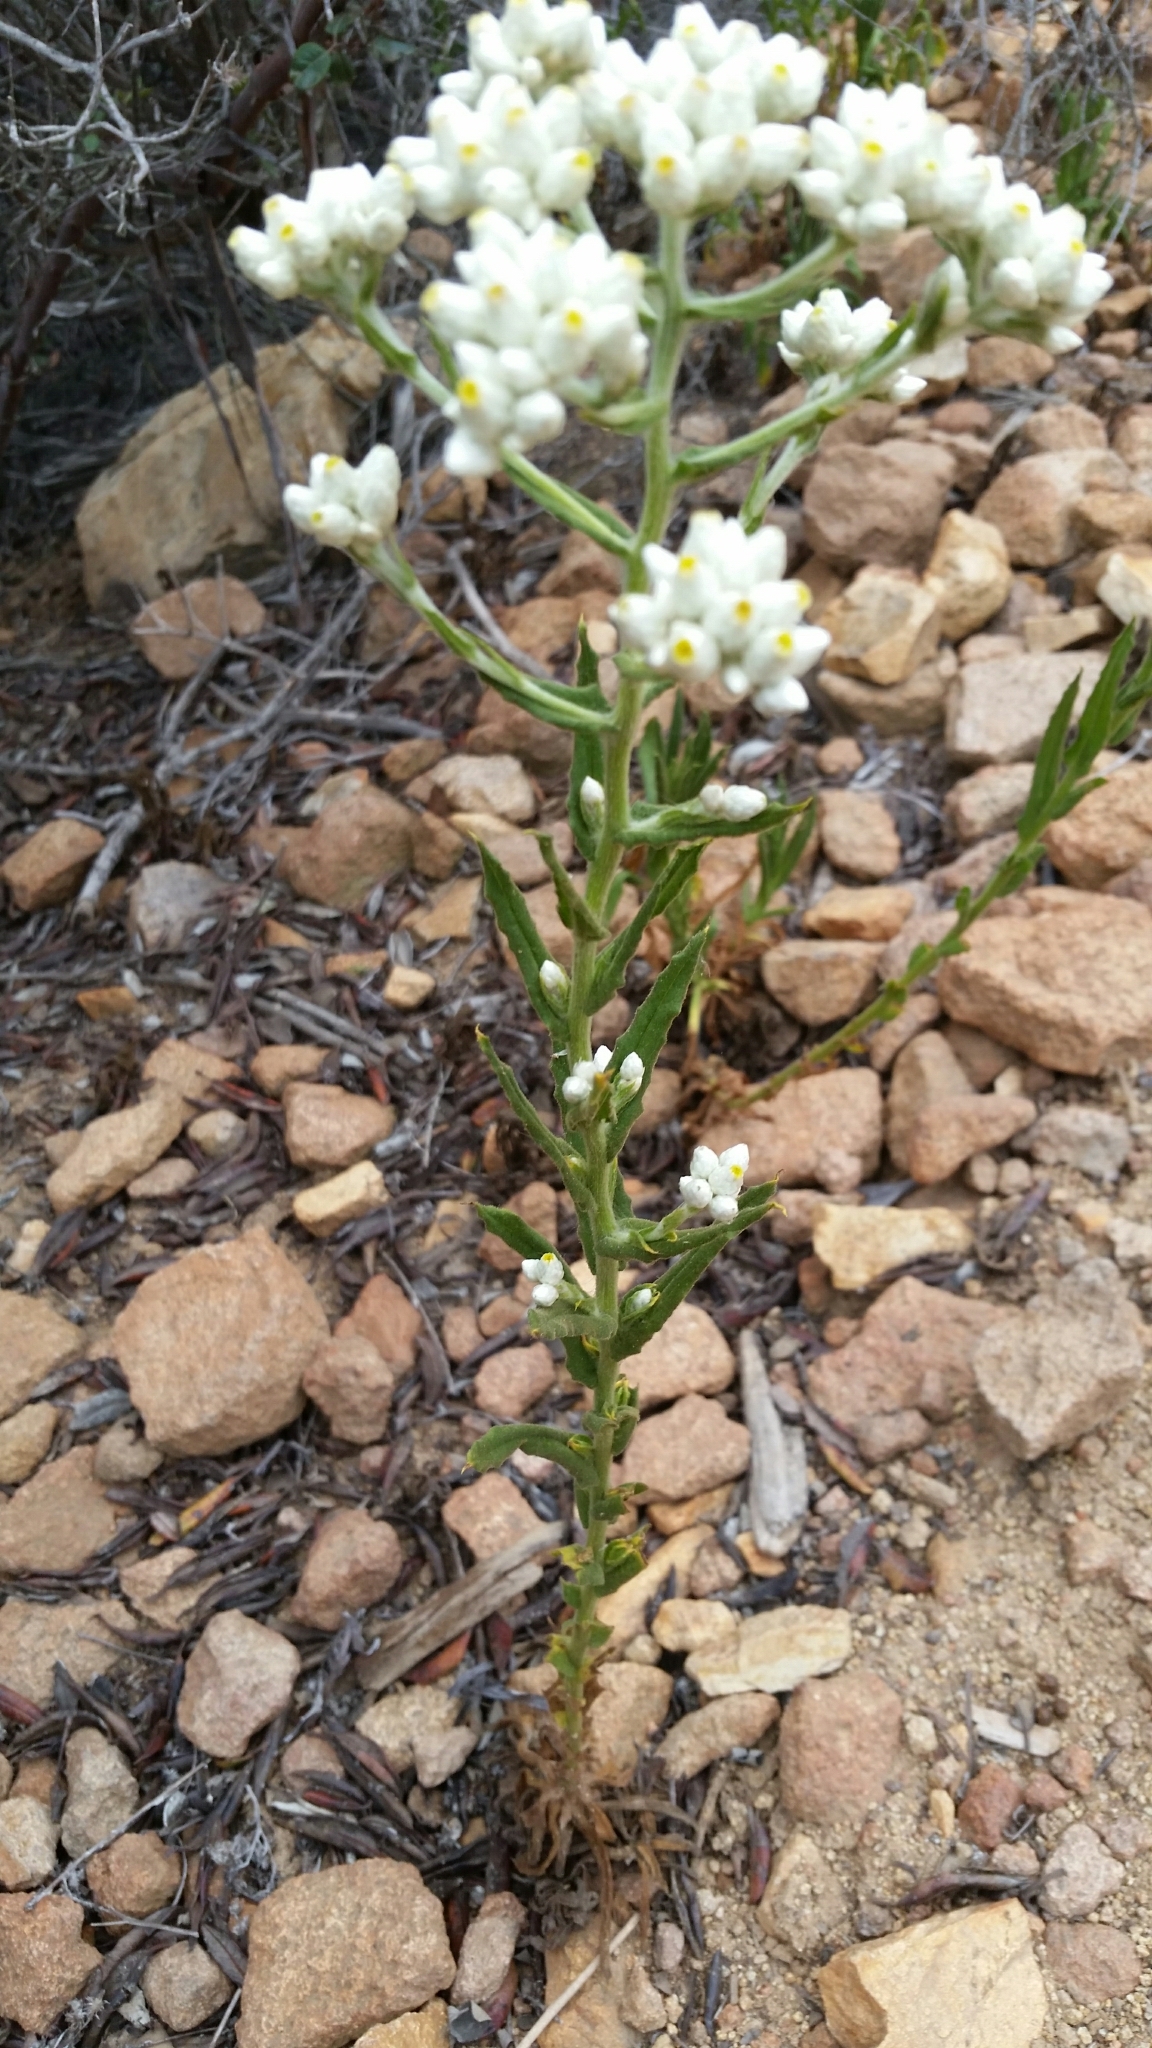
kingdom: Plantae
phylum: Tracheophyta
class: Magnoliopsida
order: Asterales
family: Asteraceae
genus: Pseudognaphalium
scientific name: Pseudognaphalium californicum
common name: California rabbit-tobacco
